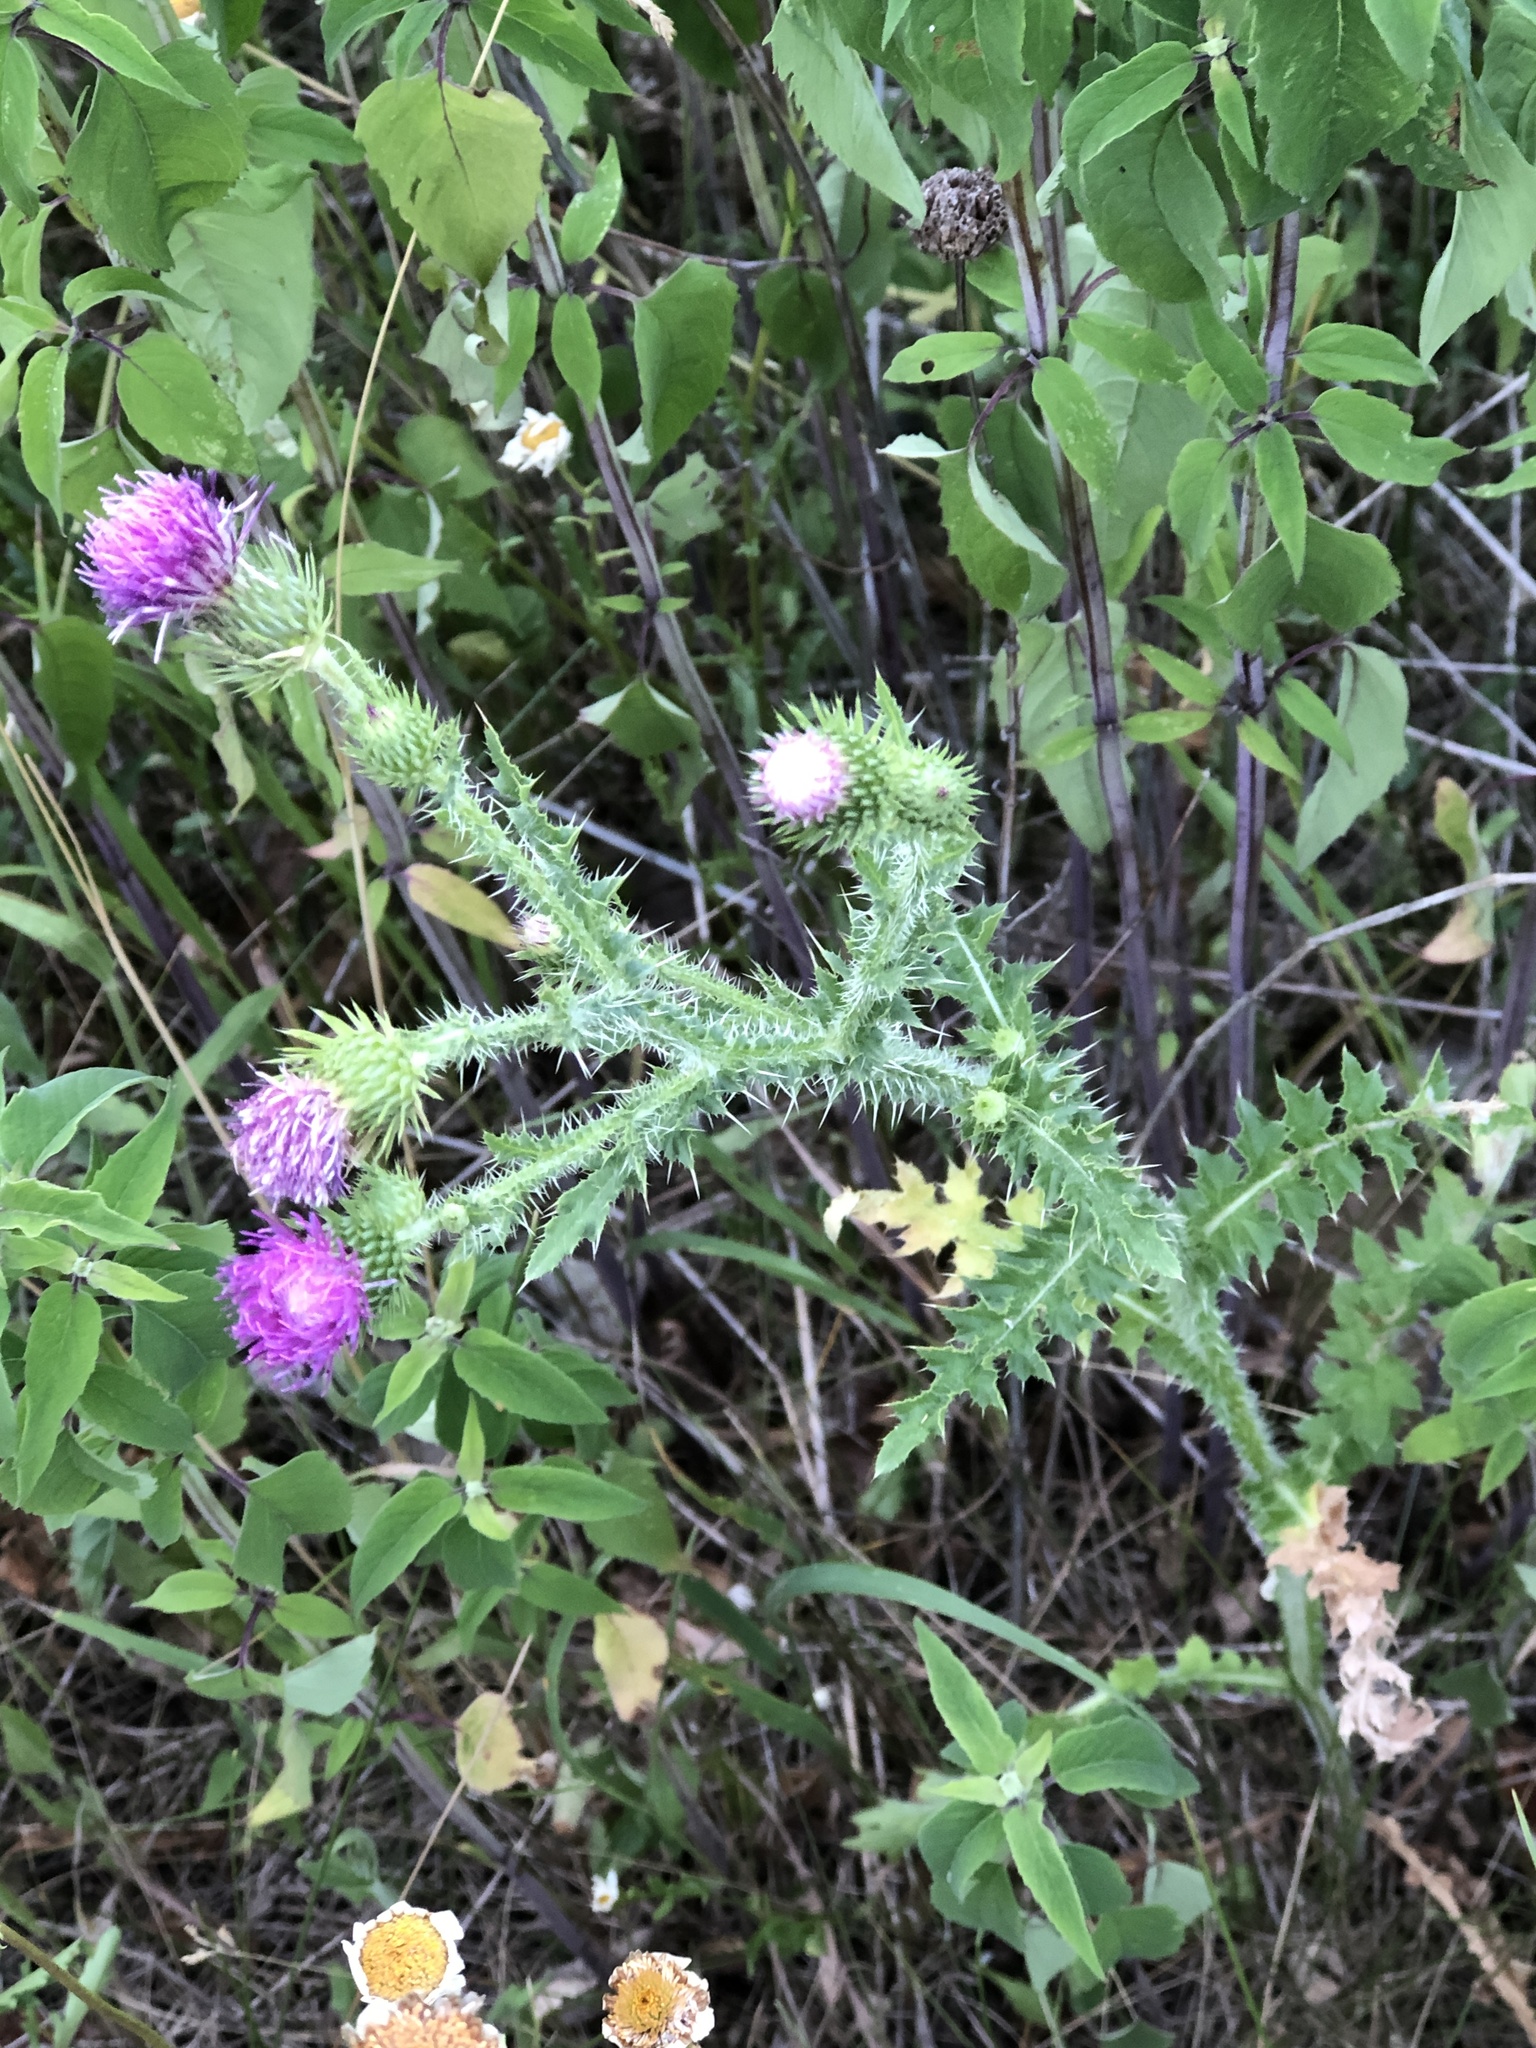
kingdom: Plantae
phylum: Tracheophyta
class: Magnoliopsida
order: Asterales
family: Asteraceae
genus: Carduus
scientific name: Carduus acanthoides
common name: Plumeless thistle
